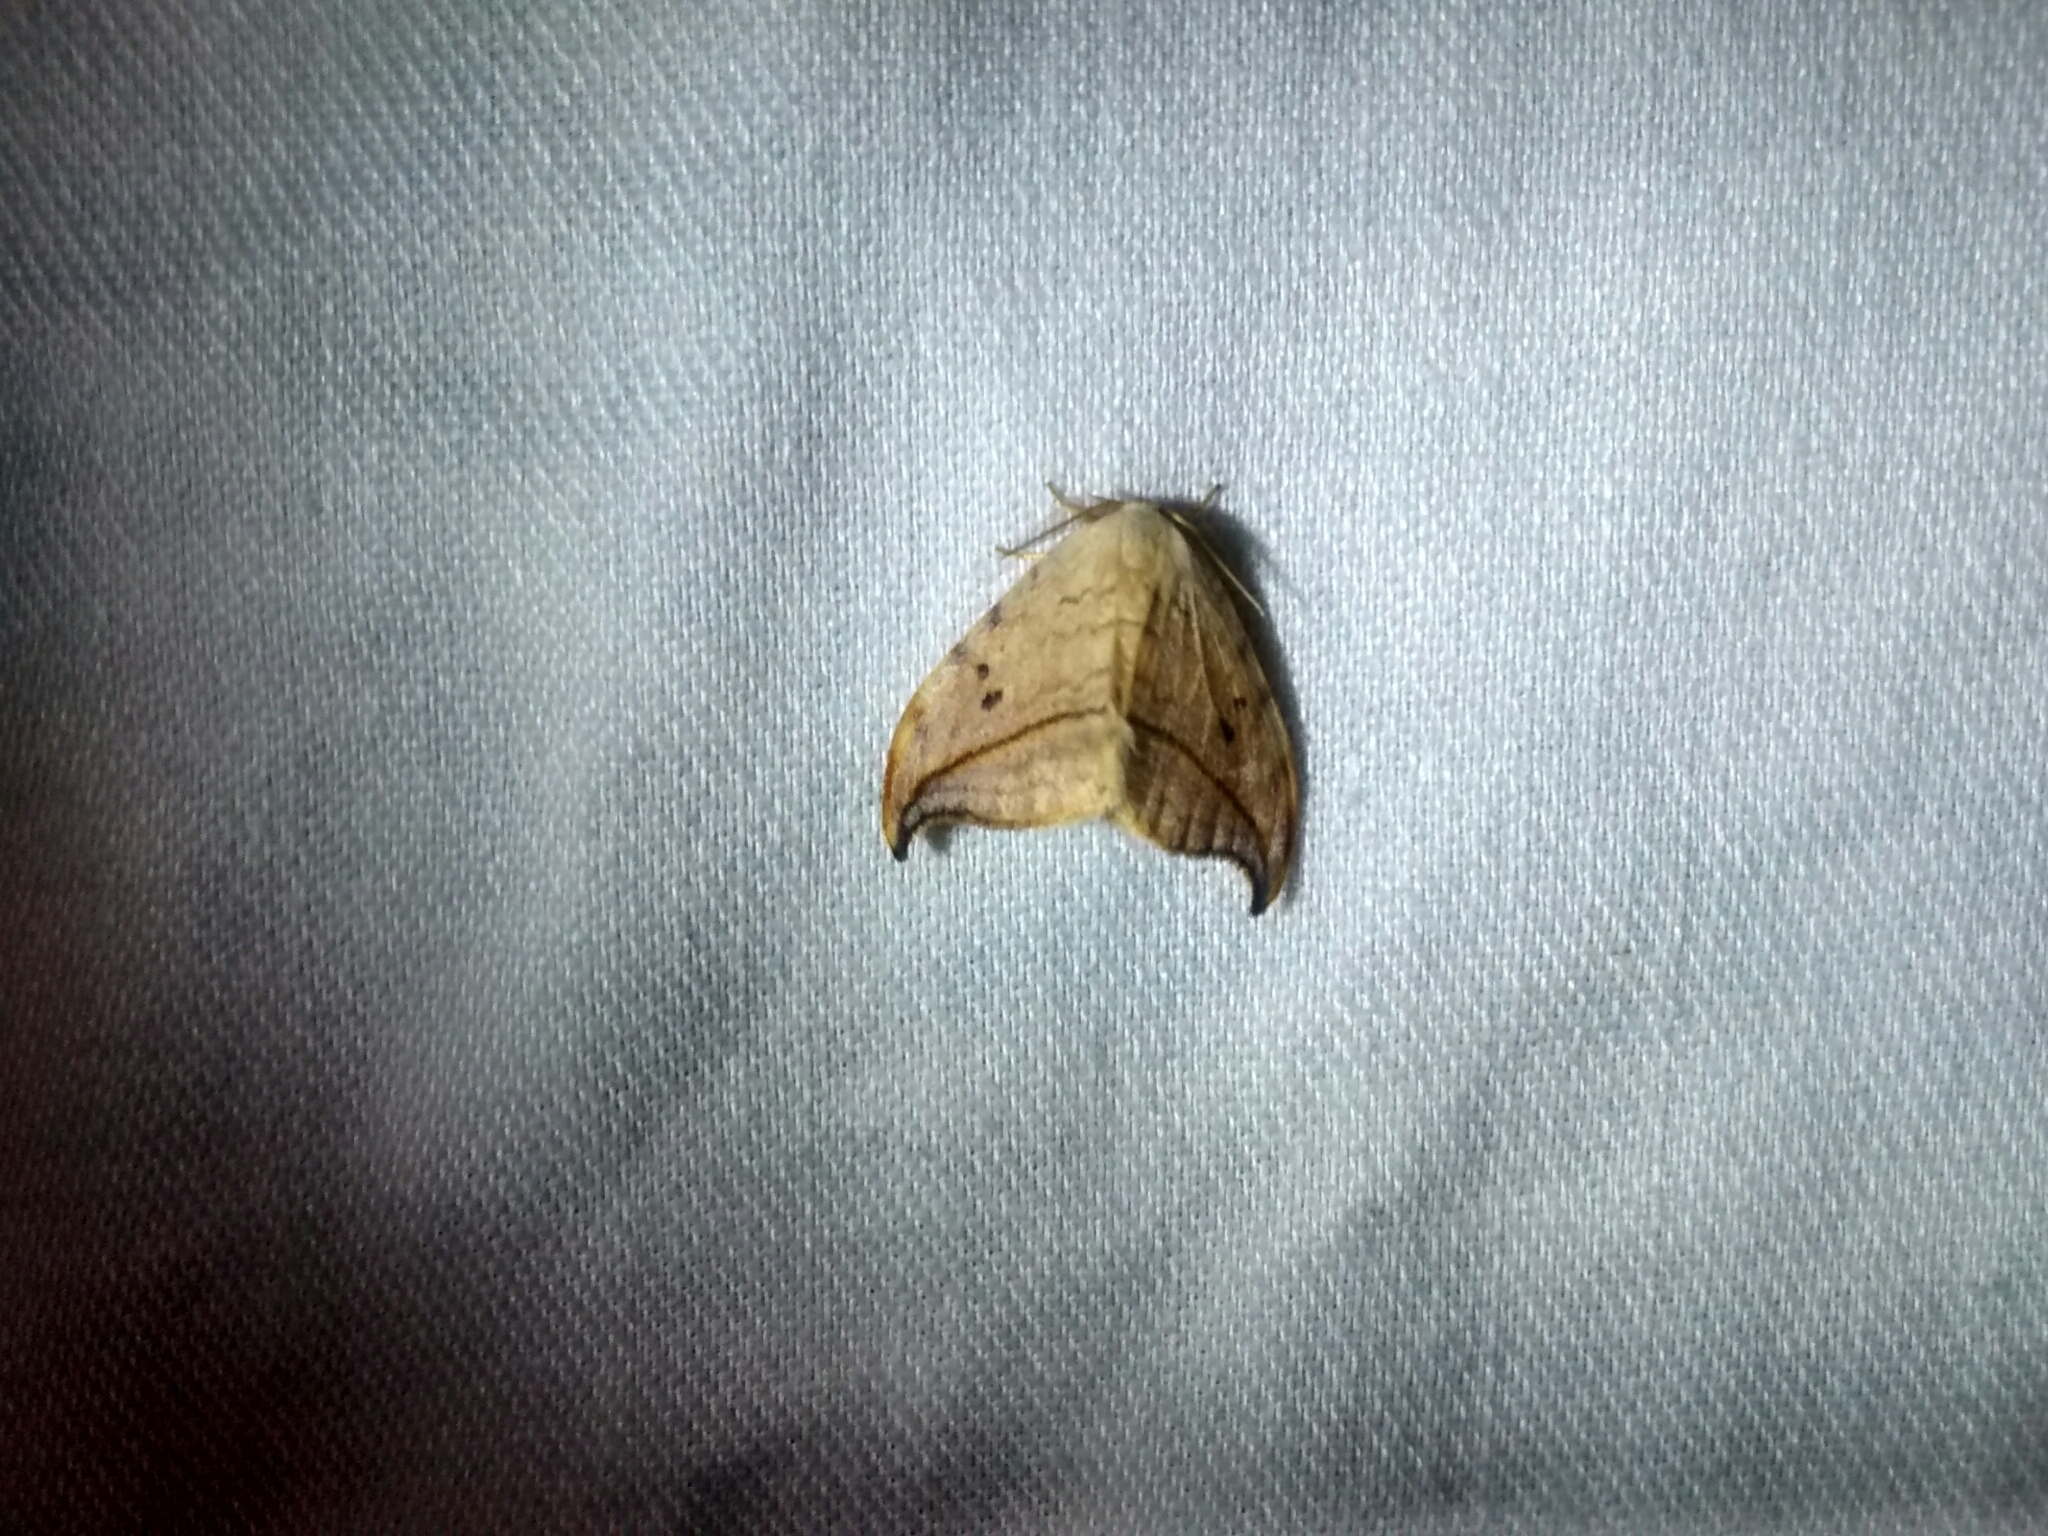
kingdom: Animalia
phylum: Arthropoda
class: Insecta
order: Lepidoptera
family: Drepanidae
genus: Drepana
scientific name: Drepana arcuata
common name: Arched hooktip moth
